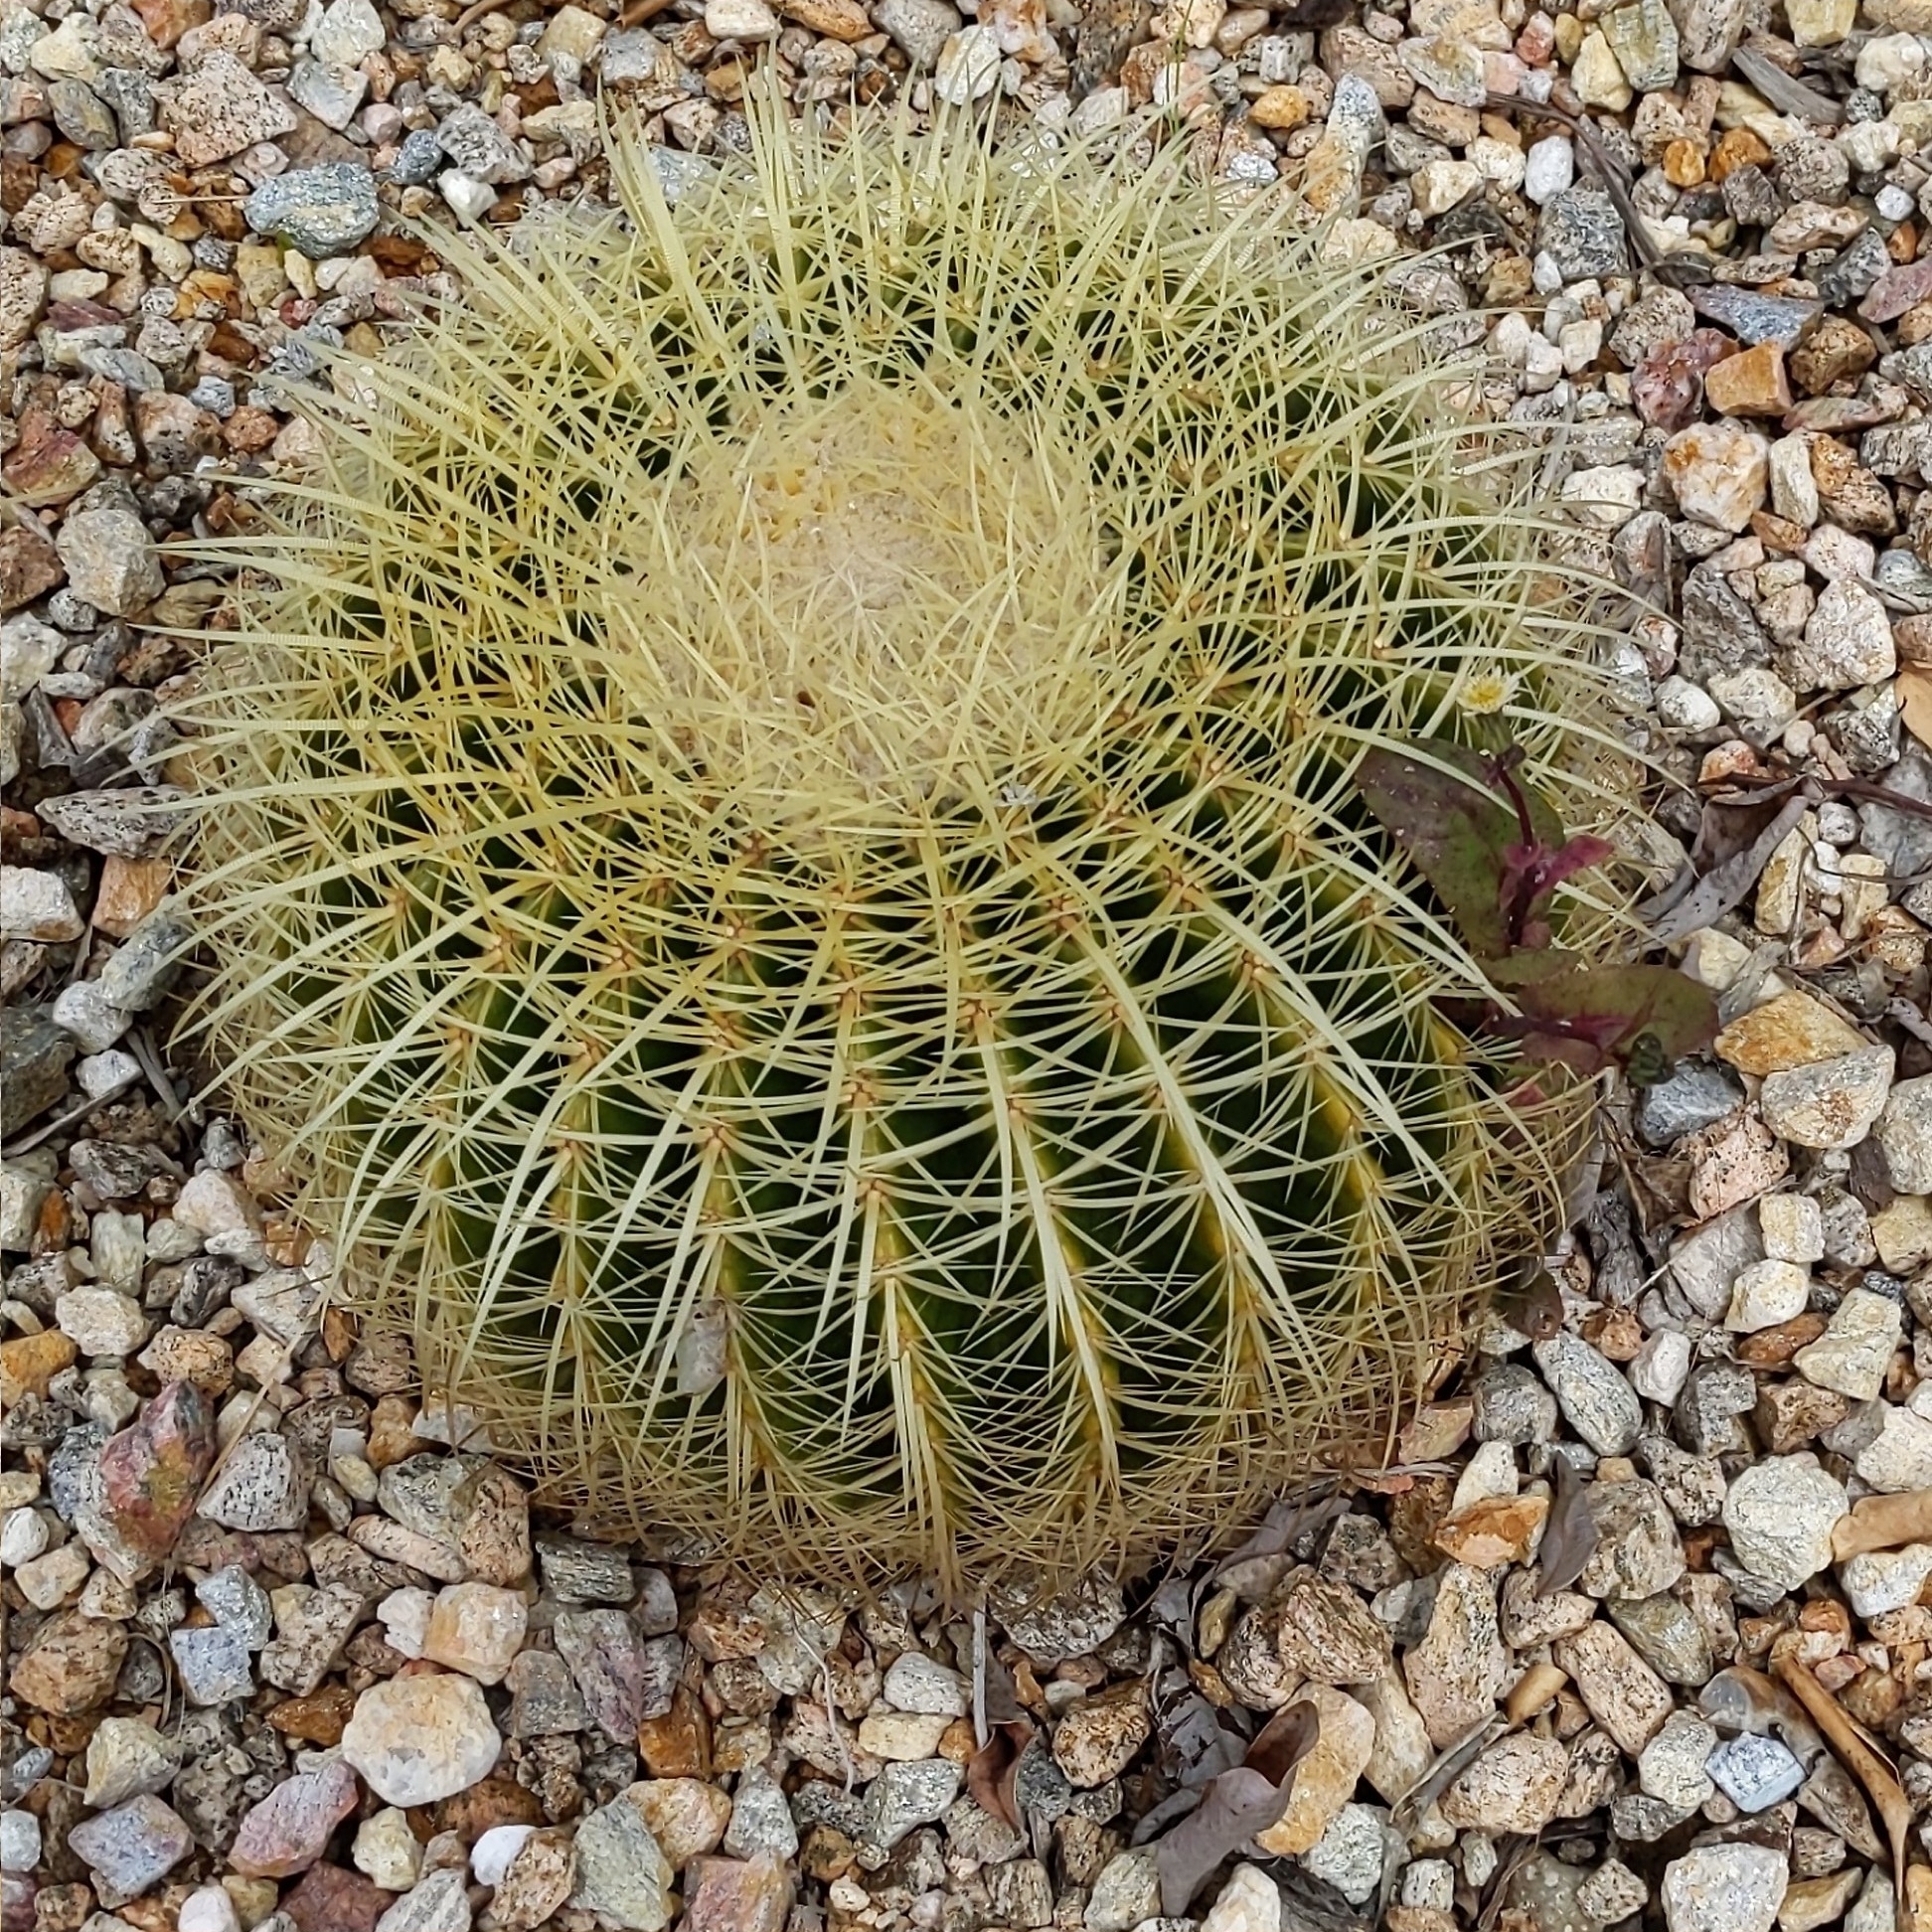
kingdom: Plantae
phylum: Tracheophyta
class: Magnoliopsida
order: Asterales
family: Asteraceae
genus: Sonchus
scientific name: Sonchus oleraceus
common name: Common sowthistle
